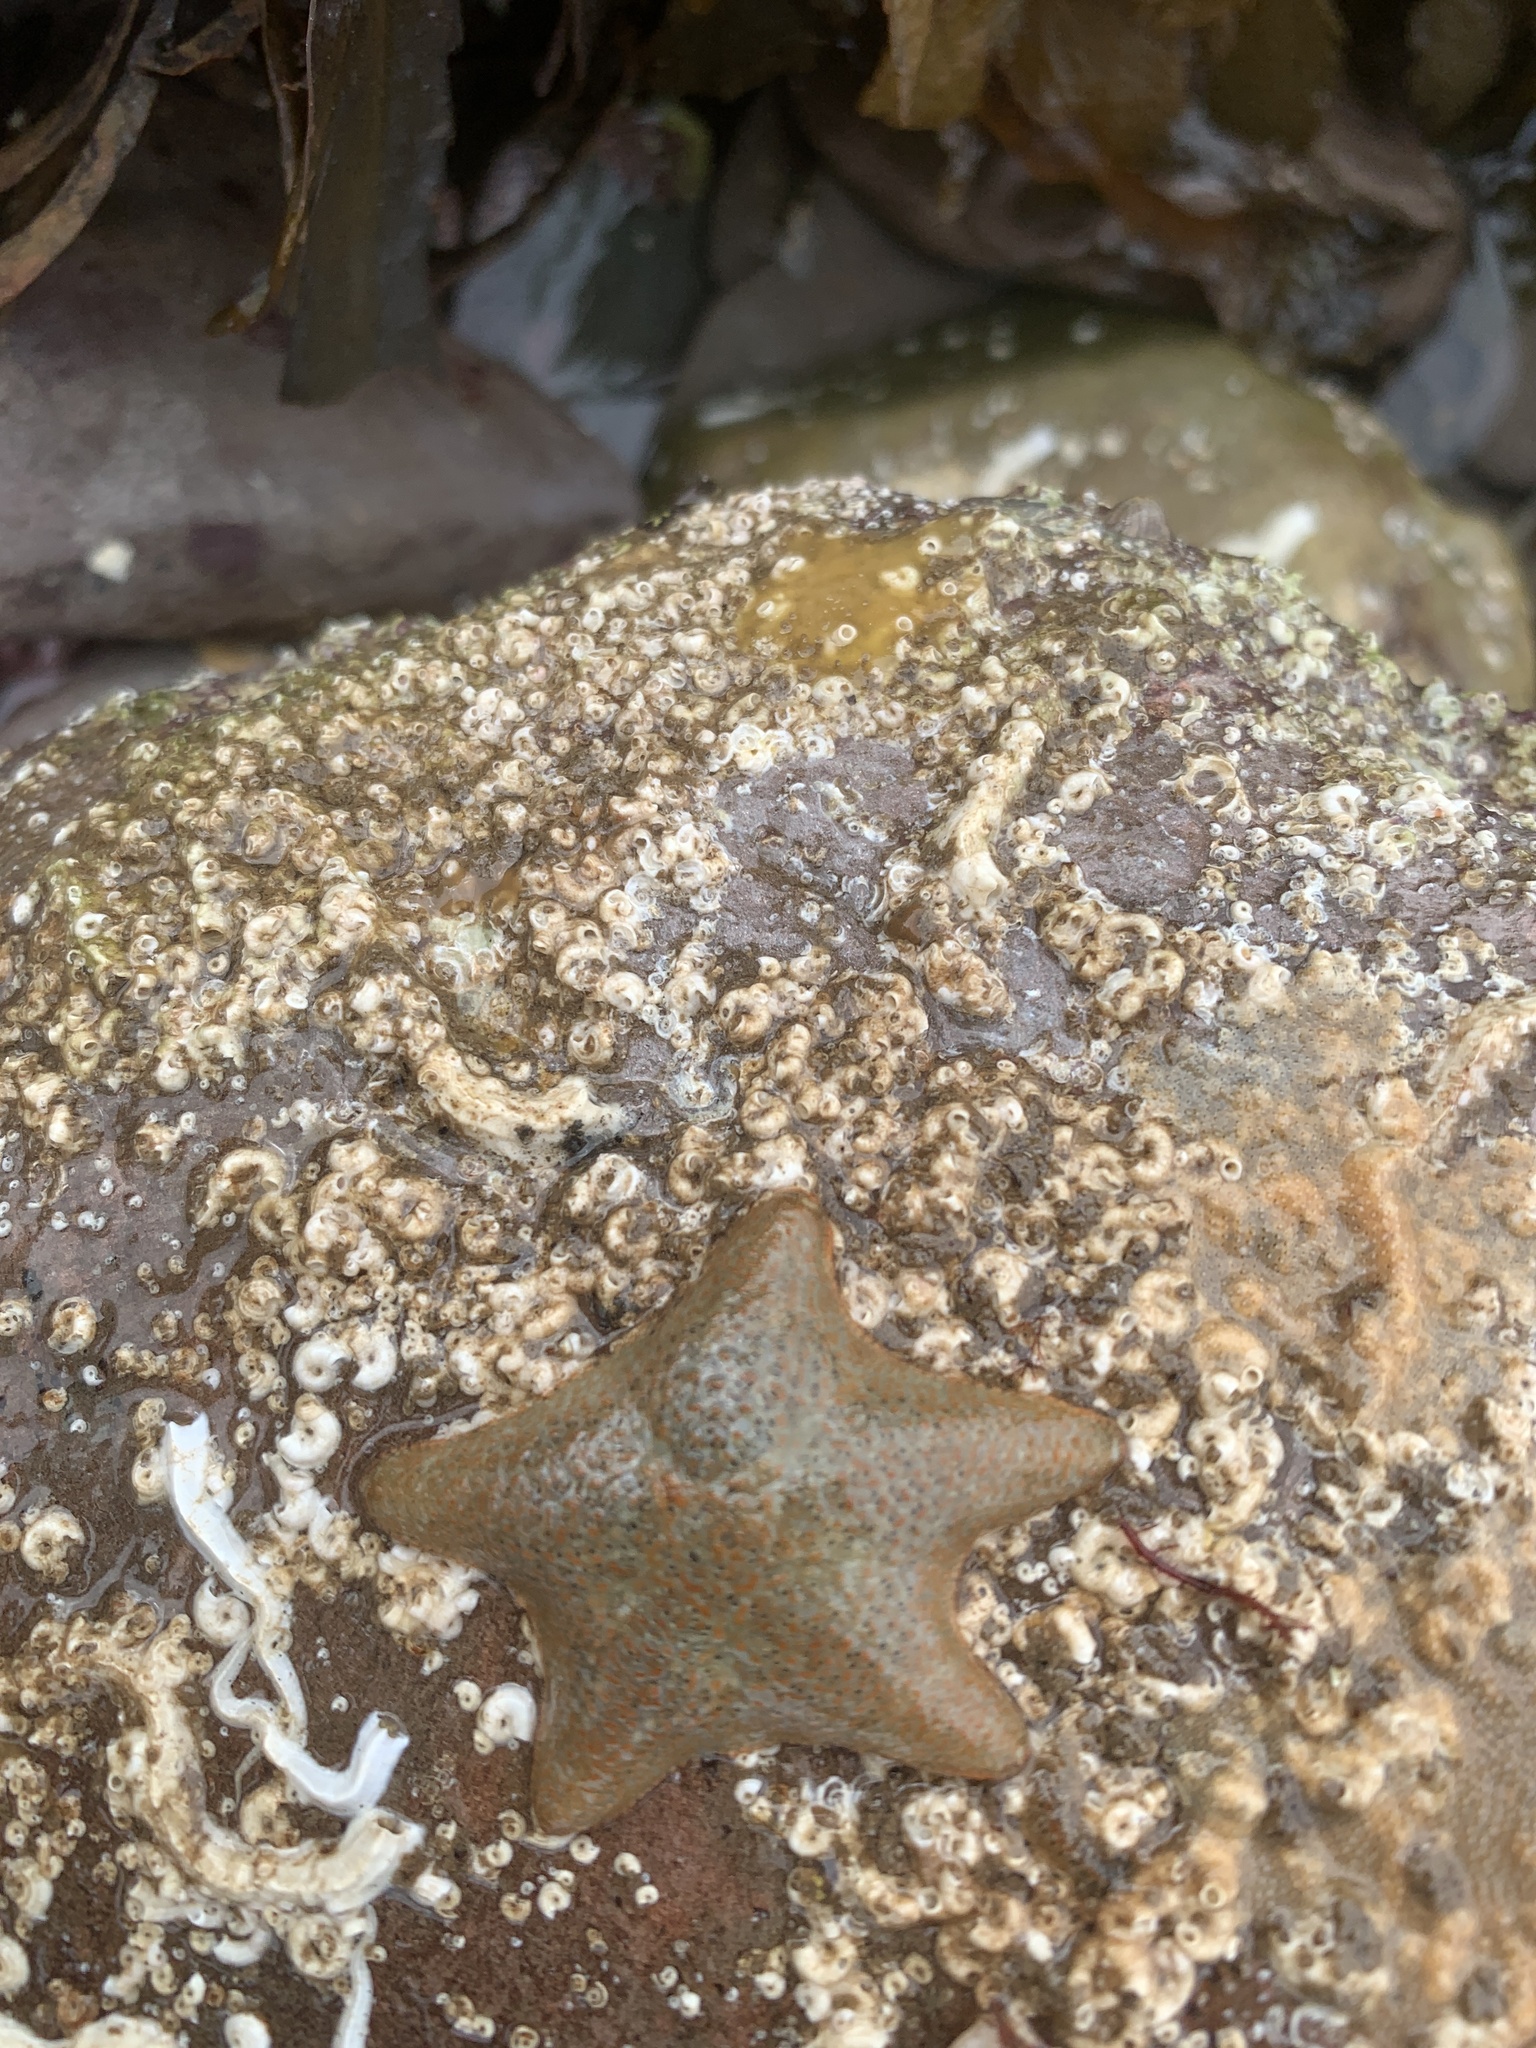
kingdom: Animalia
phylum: Echinodermata
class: Asteroidea
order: Valvatida
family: Asterinidae
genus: Asterina
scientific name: Asterina gibbosa
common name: Cushion star
